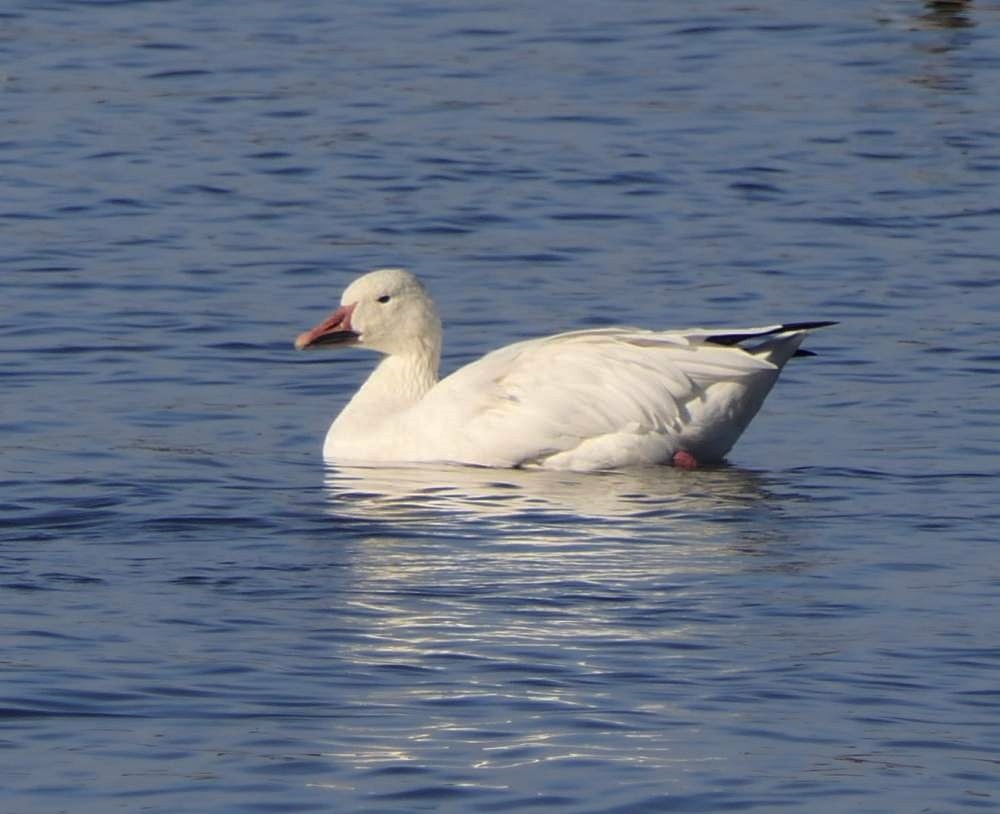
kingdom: Animalia
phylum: Chordata
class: Aves
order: Anseriformes
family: Anatidae
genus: Anser
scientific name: Anser caerulescens
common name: Snow goose
